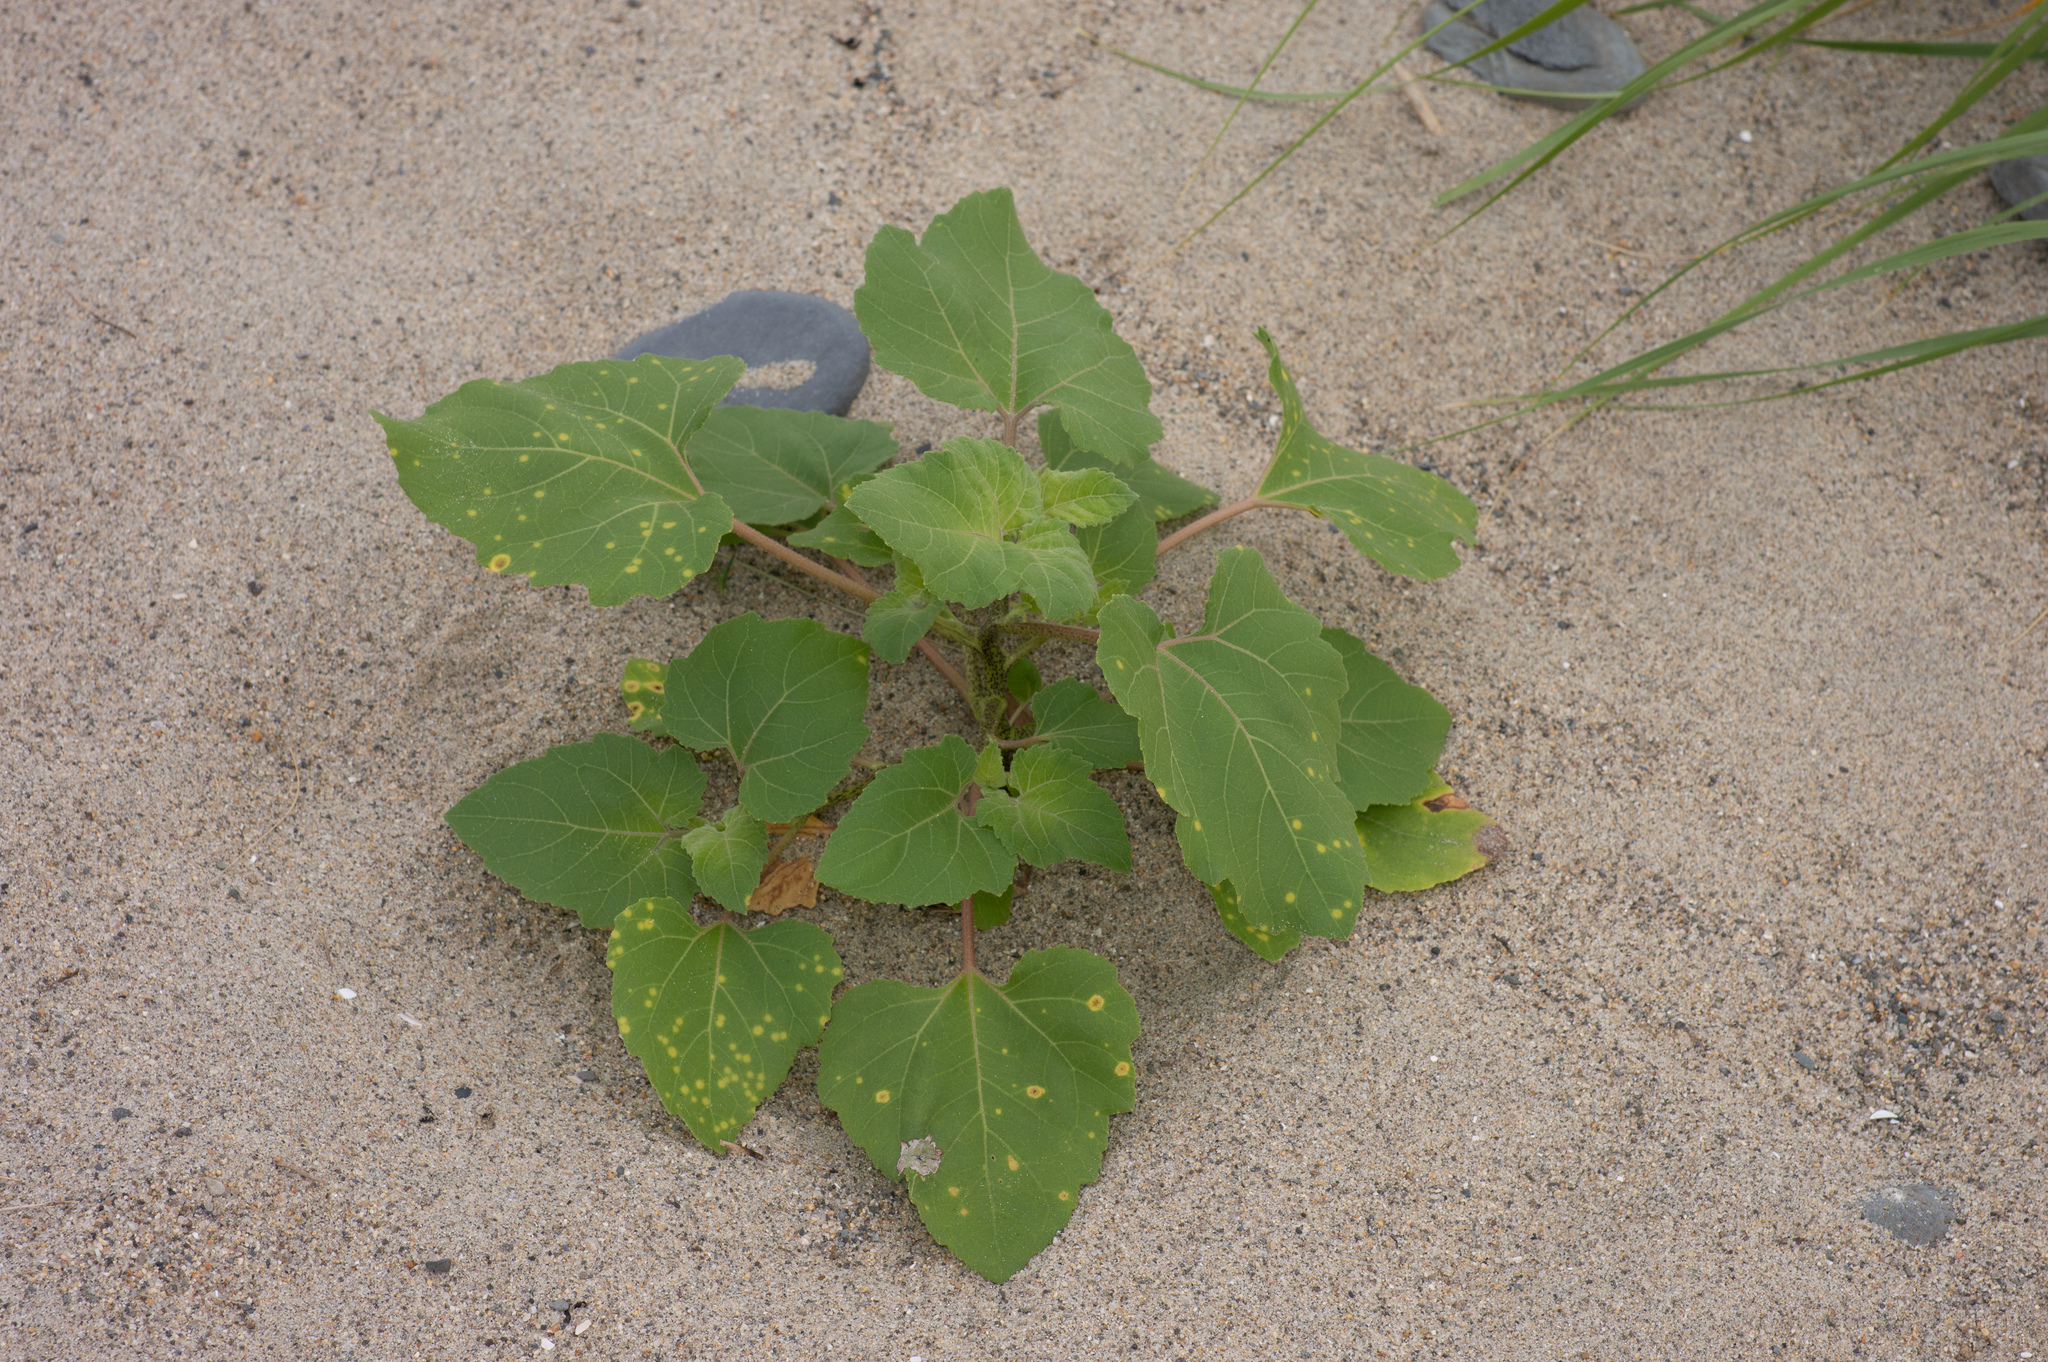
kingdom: Plantae
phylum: Tracheophyta
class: Magnoliopsida
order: Asterales
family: Asteraceae
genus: Xanthium
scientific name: Xanthium strumarium
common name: Rough cocklebur
